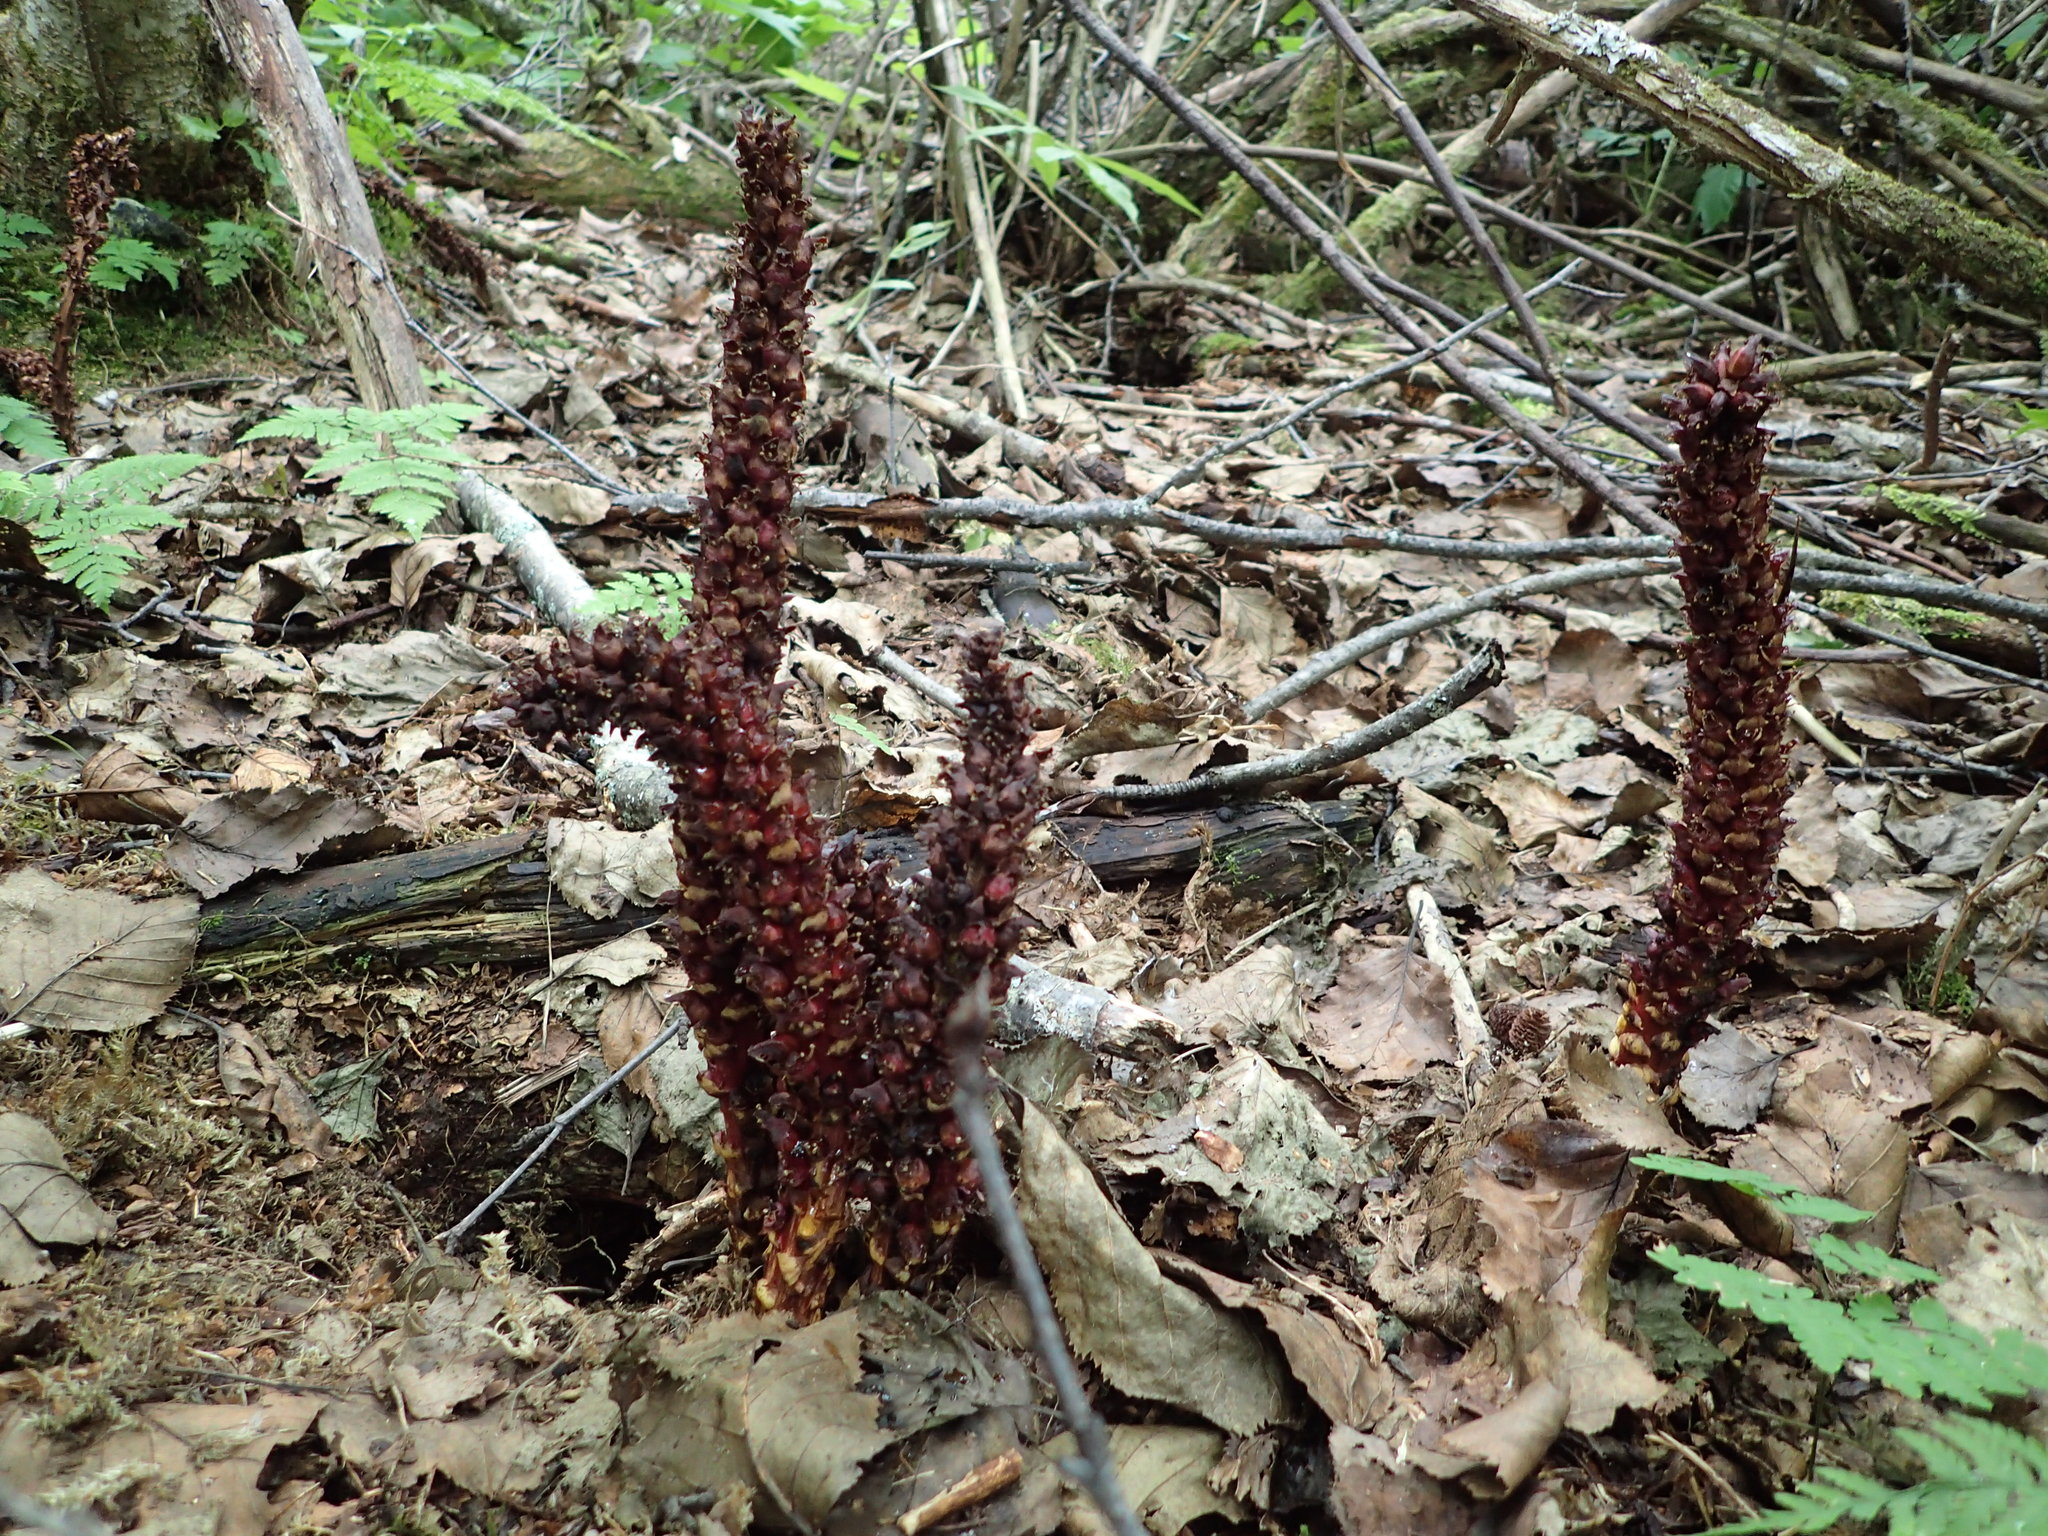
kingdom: Plantae
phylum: Tracheophyta
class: Magnoliopsida
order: Lamiales
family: Orobanchaceae
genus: Boschniakia
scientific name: Boschniakia rossica
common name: Poque
